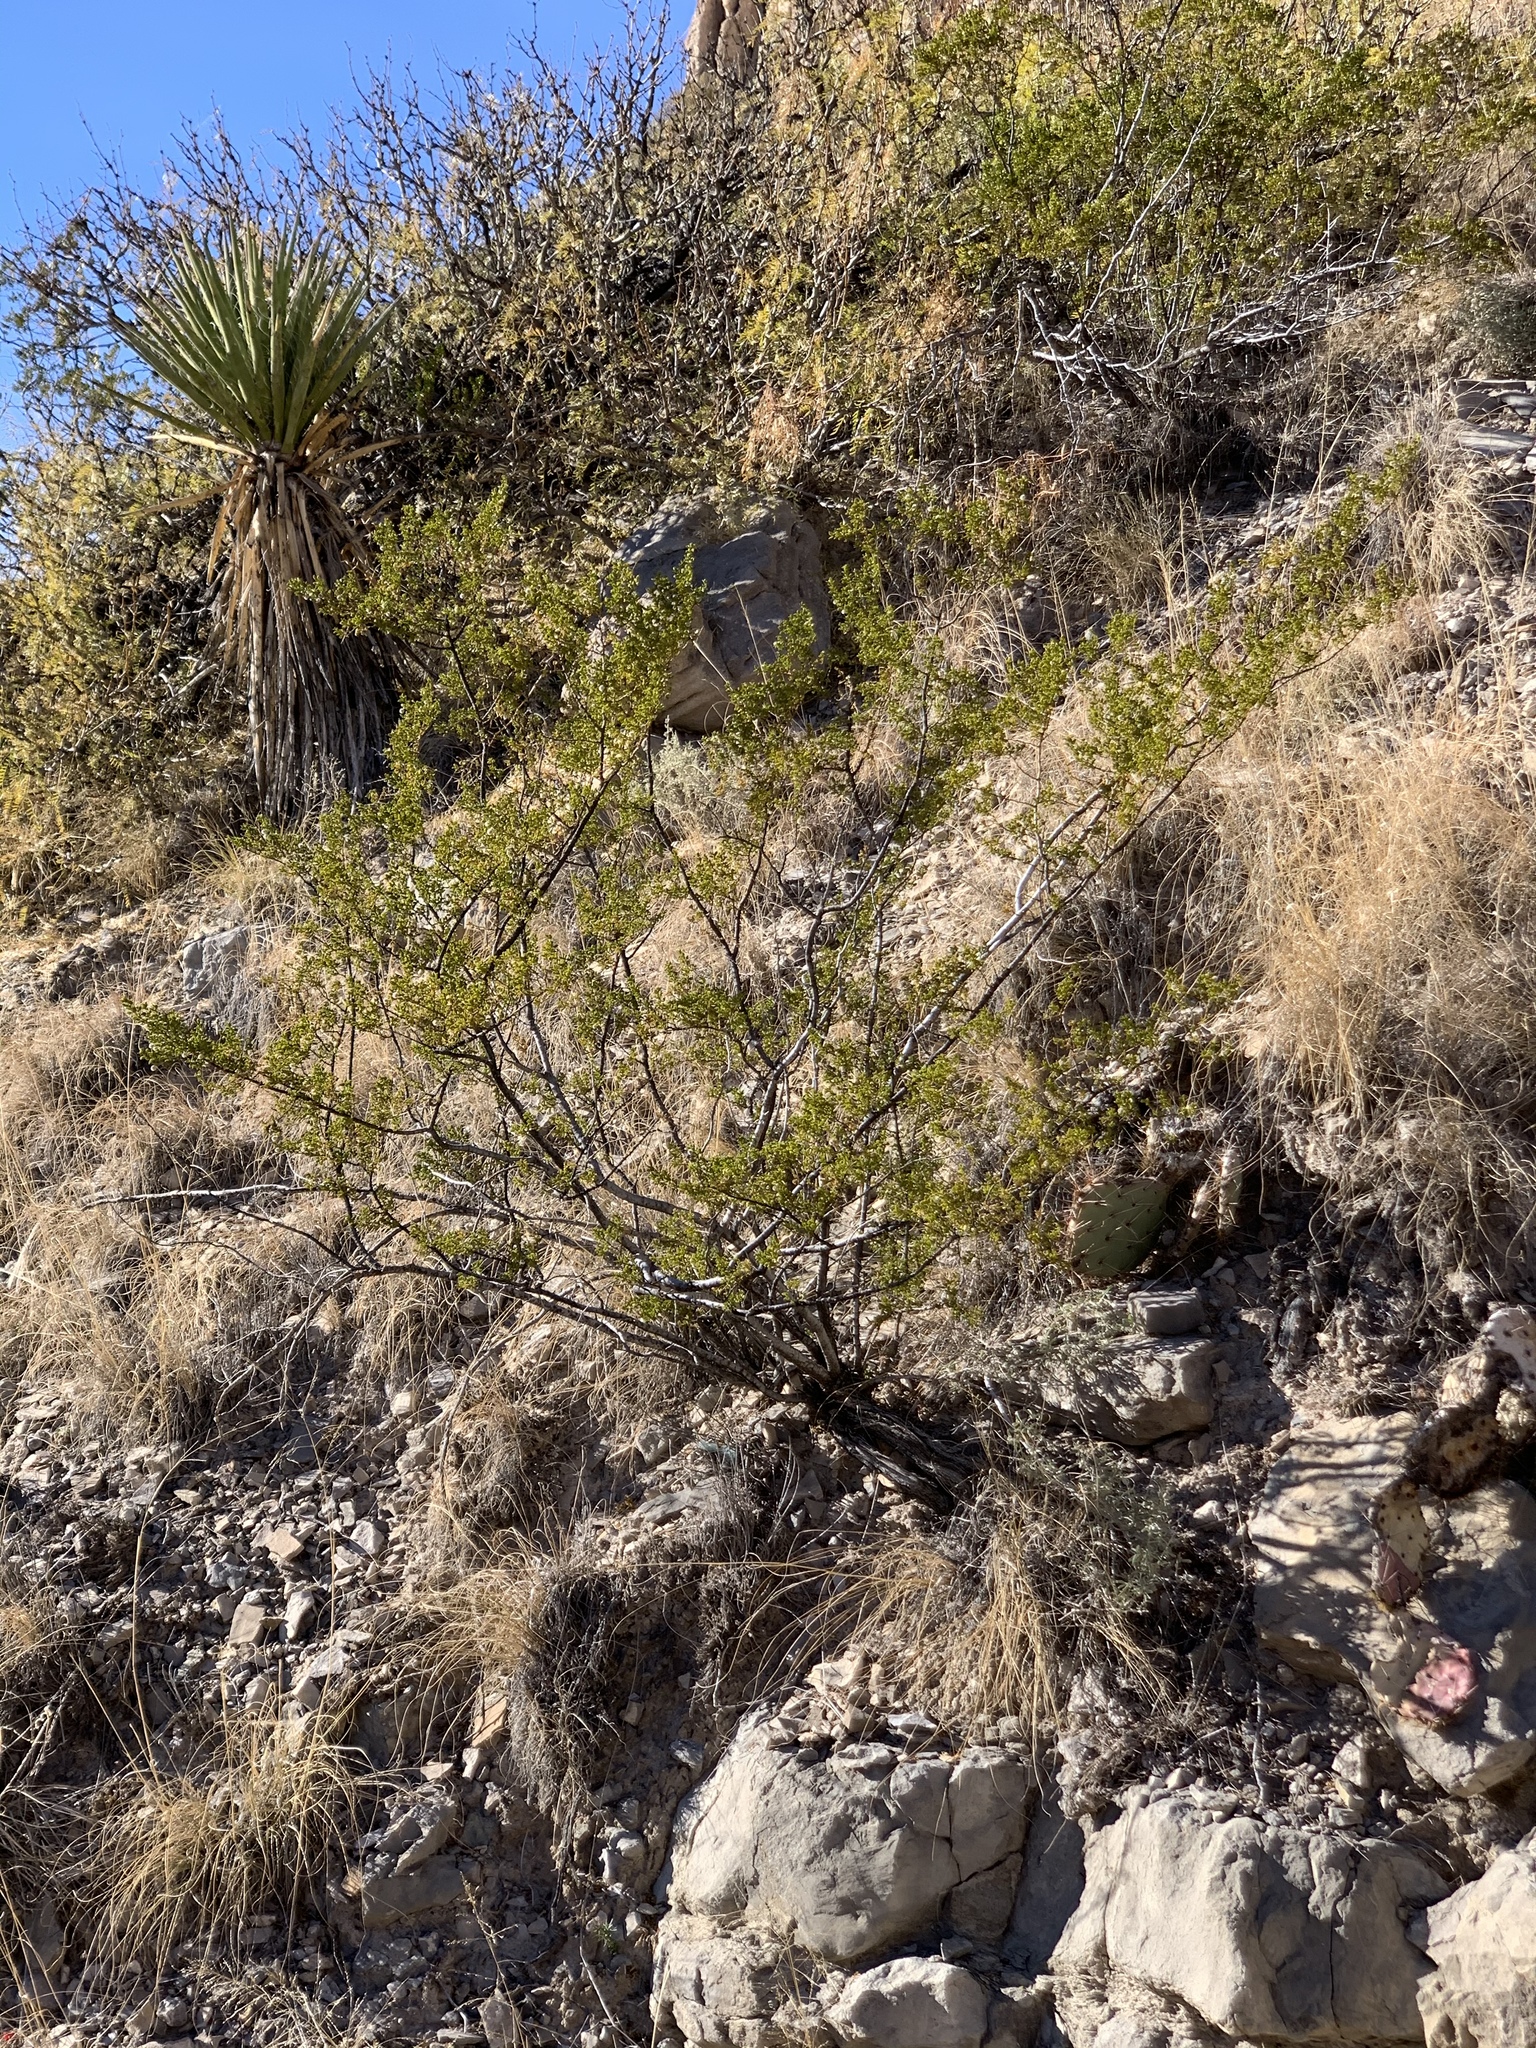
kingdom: Plantae
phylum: Tracheophyta
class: Magnoliopsida
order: Zygophyllales
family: Zygophyllaceae
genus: Larrea
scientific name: Larrea tridentata
